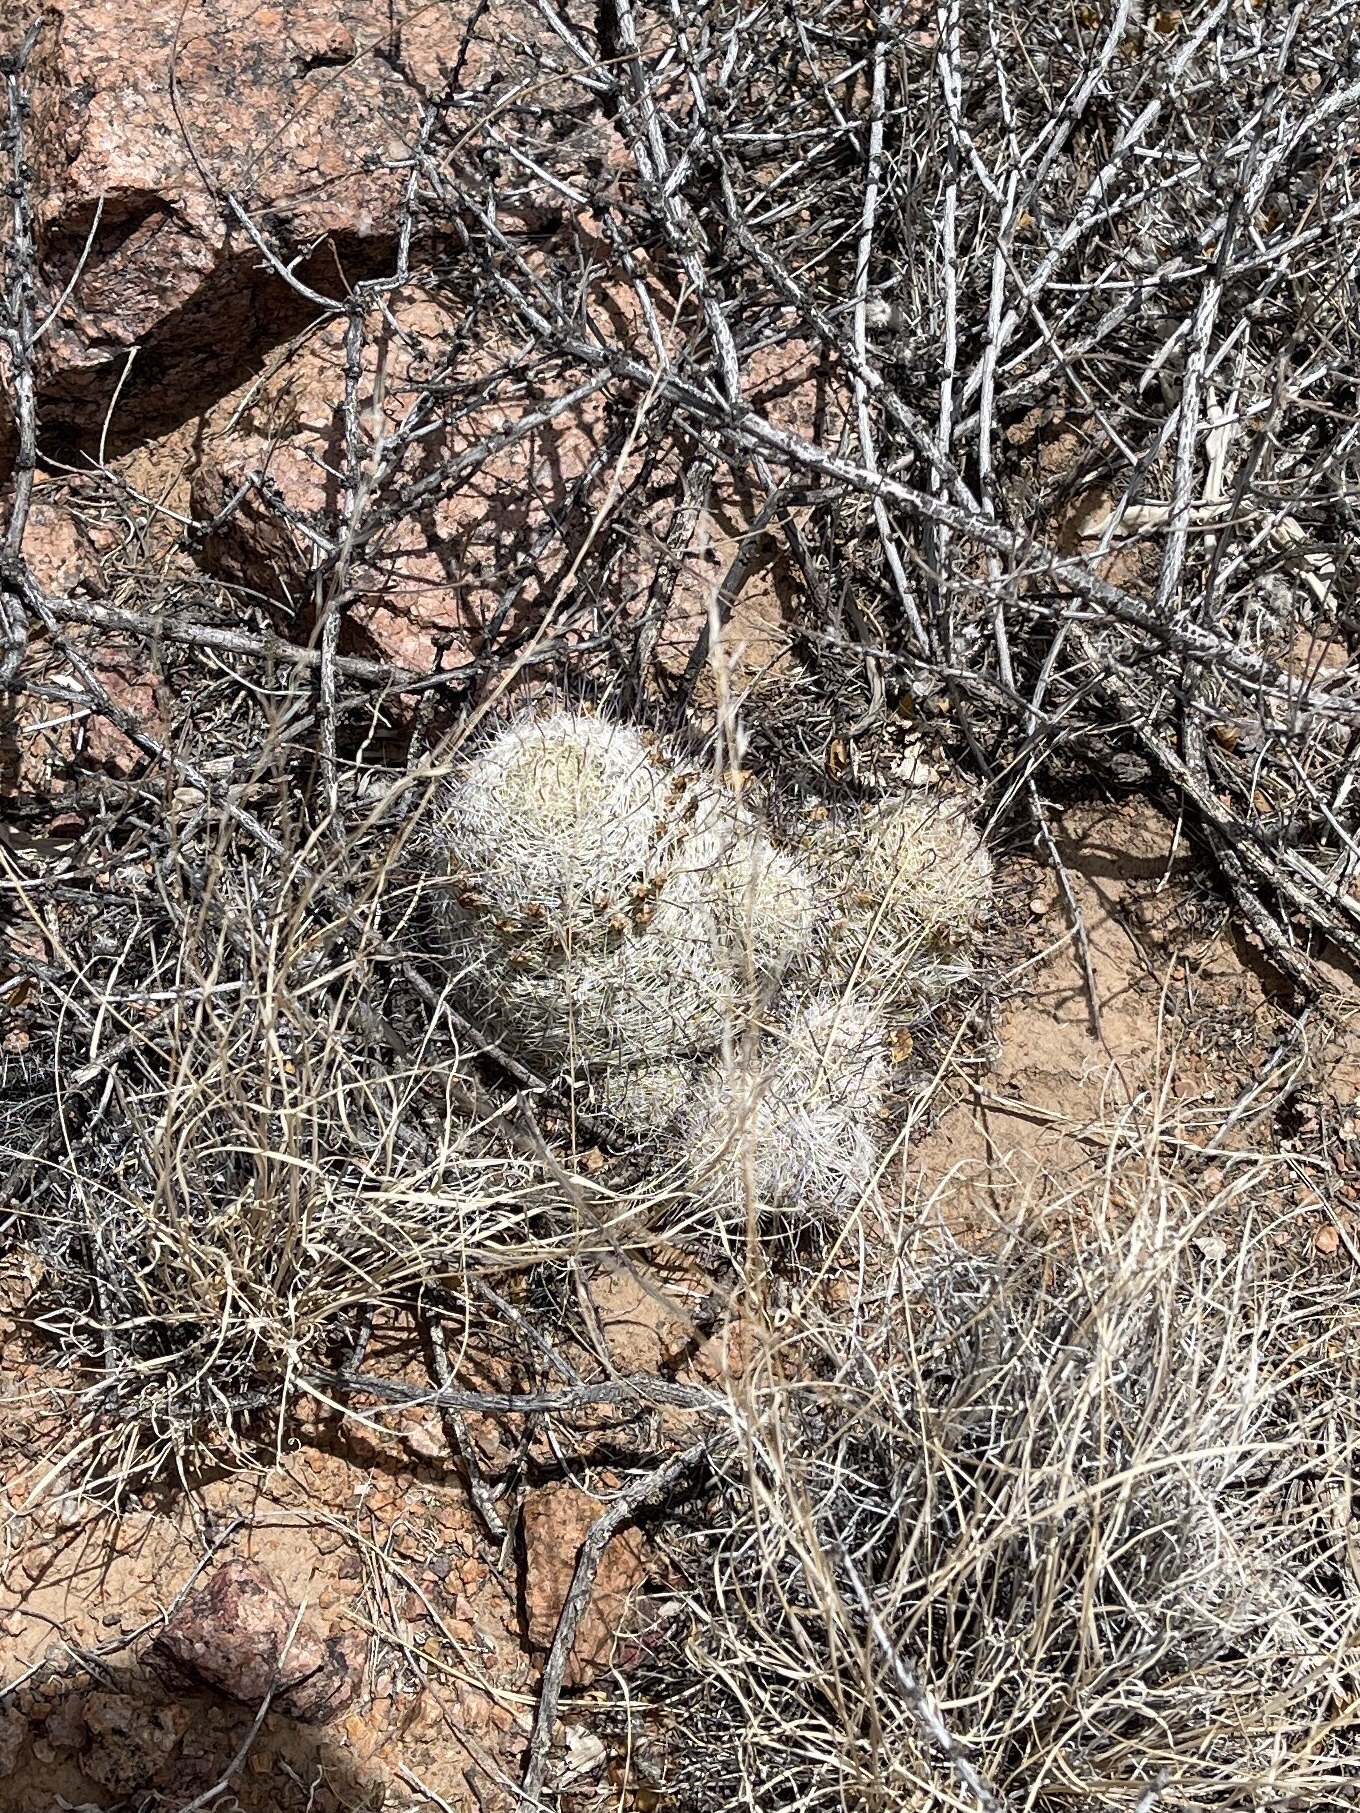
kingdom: Plantae
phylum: Tracheophyta
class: Magnoliopsida
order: Caryophyllales
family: Cactaceae
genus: Cochemiea
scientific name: Cochemiea grahamii
